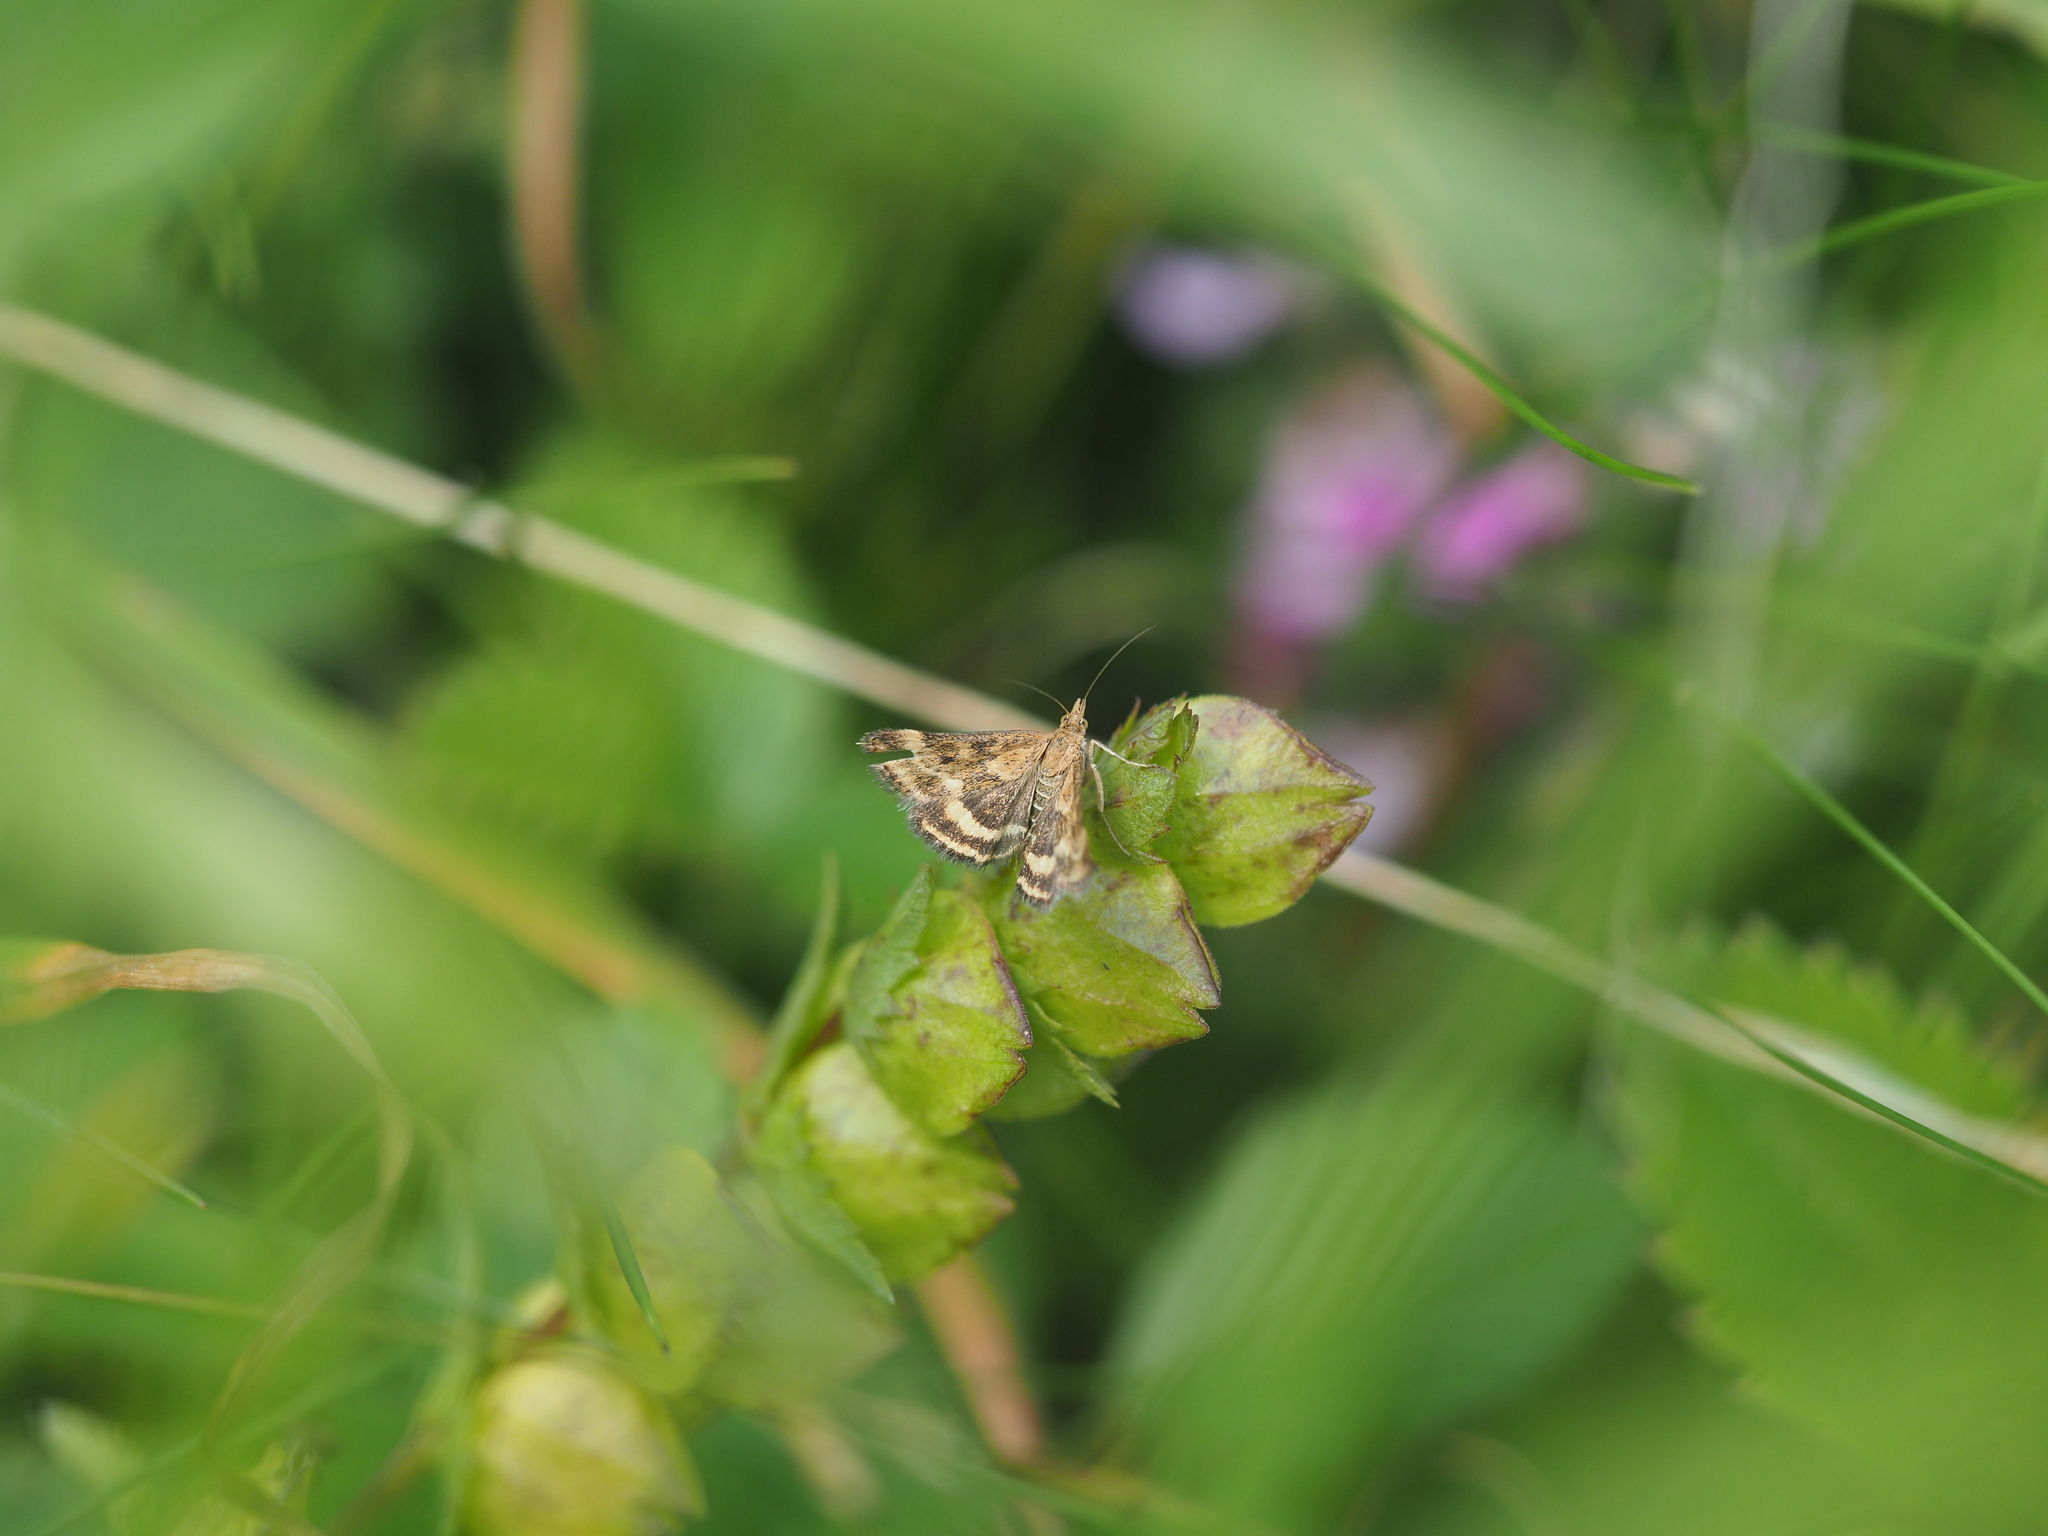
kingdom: Animalia
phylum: Arthropoda
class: Insecta
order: Lepidoptera
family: Crambidae
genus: Pyrausta
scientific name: Pyrausta despicata
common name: Straw-barred pearl
